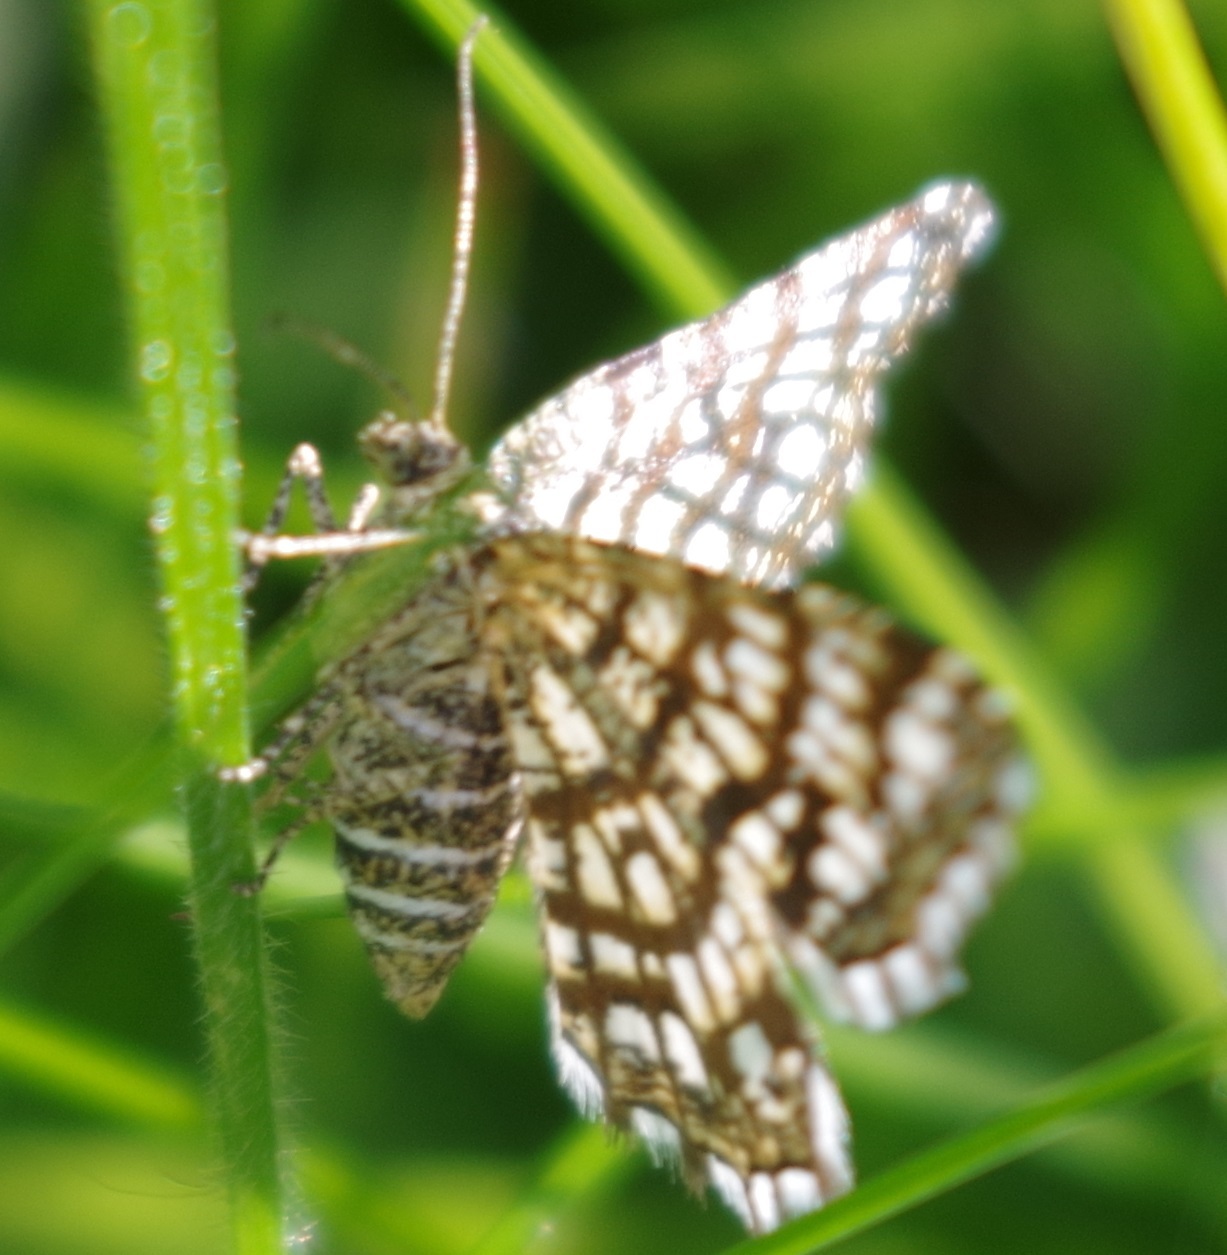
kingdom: Animalia
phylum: Arthropoda
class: Insecta
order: Lepidoptera
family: Geometridae
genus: Chiasmia
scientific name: Chiasmia clathrata
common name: Latticed heath
